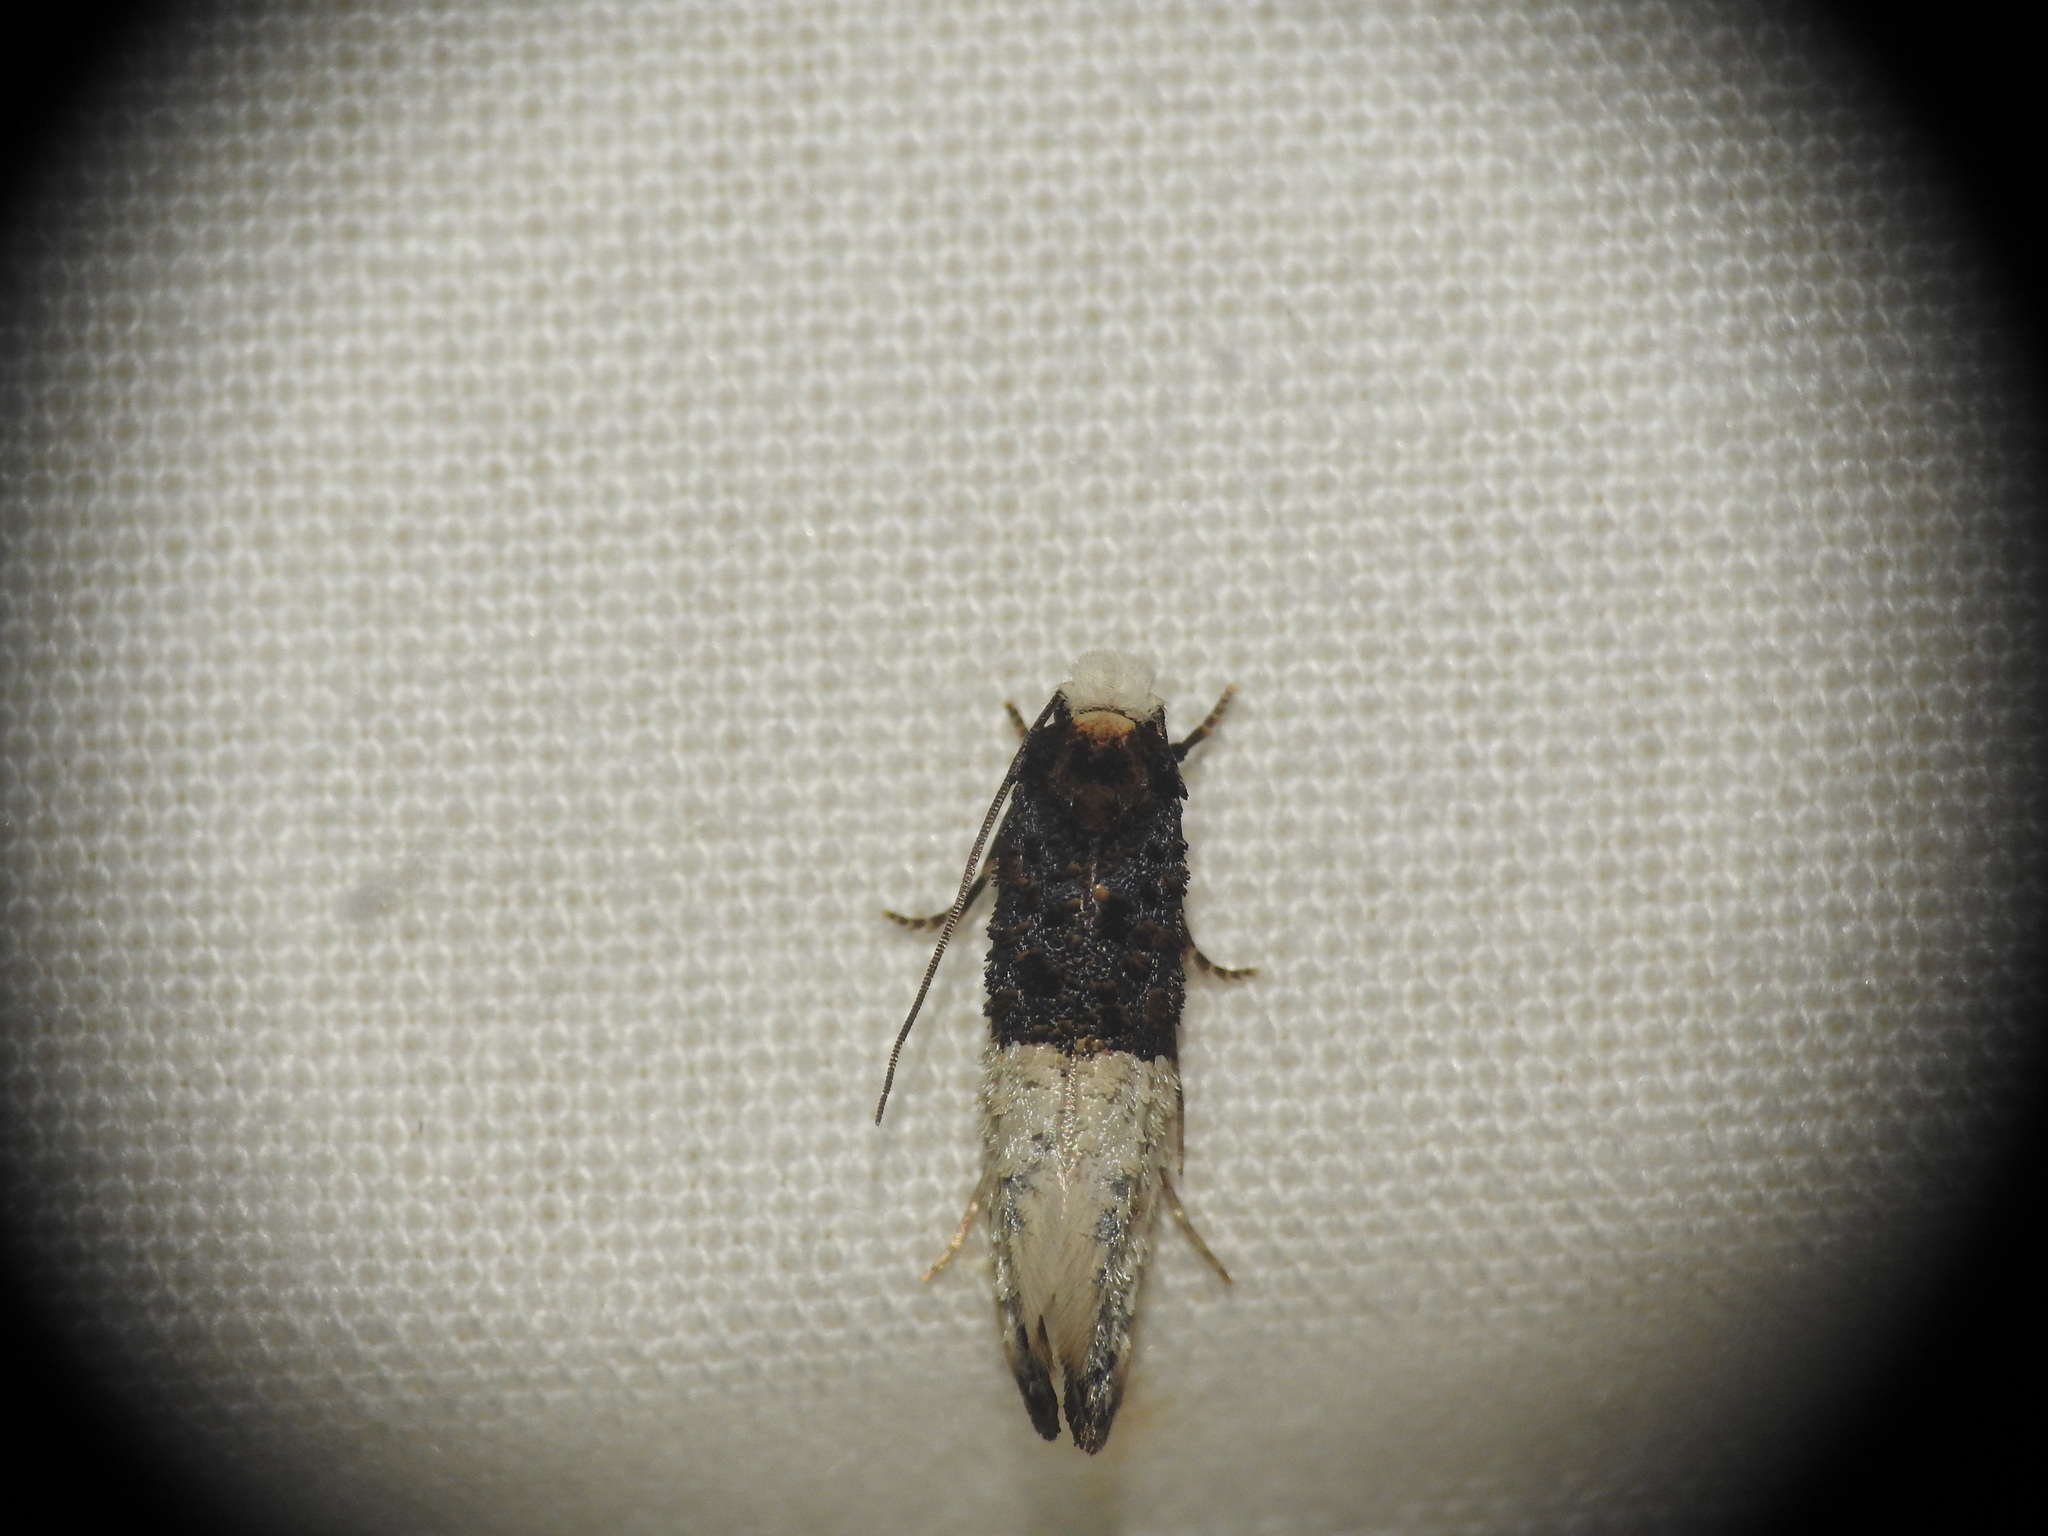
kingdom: Animalia
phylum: Arthropoda
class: Insecta
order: Lepidoptera
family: Tineidae
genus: Trichophaga
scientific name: Trichophaga bipartitella
